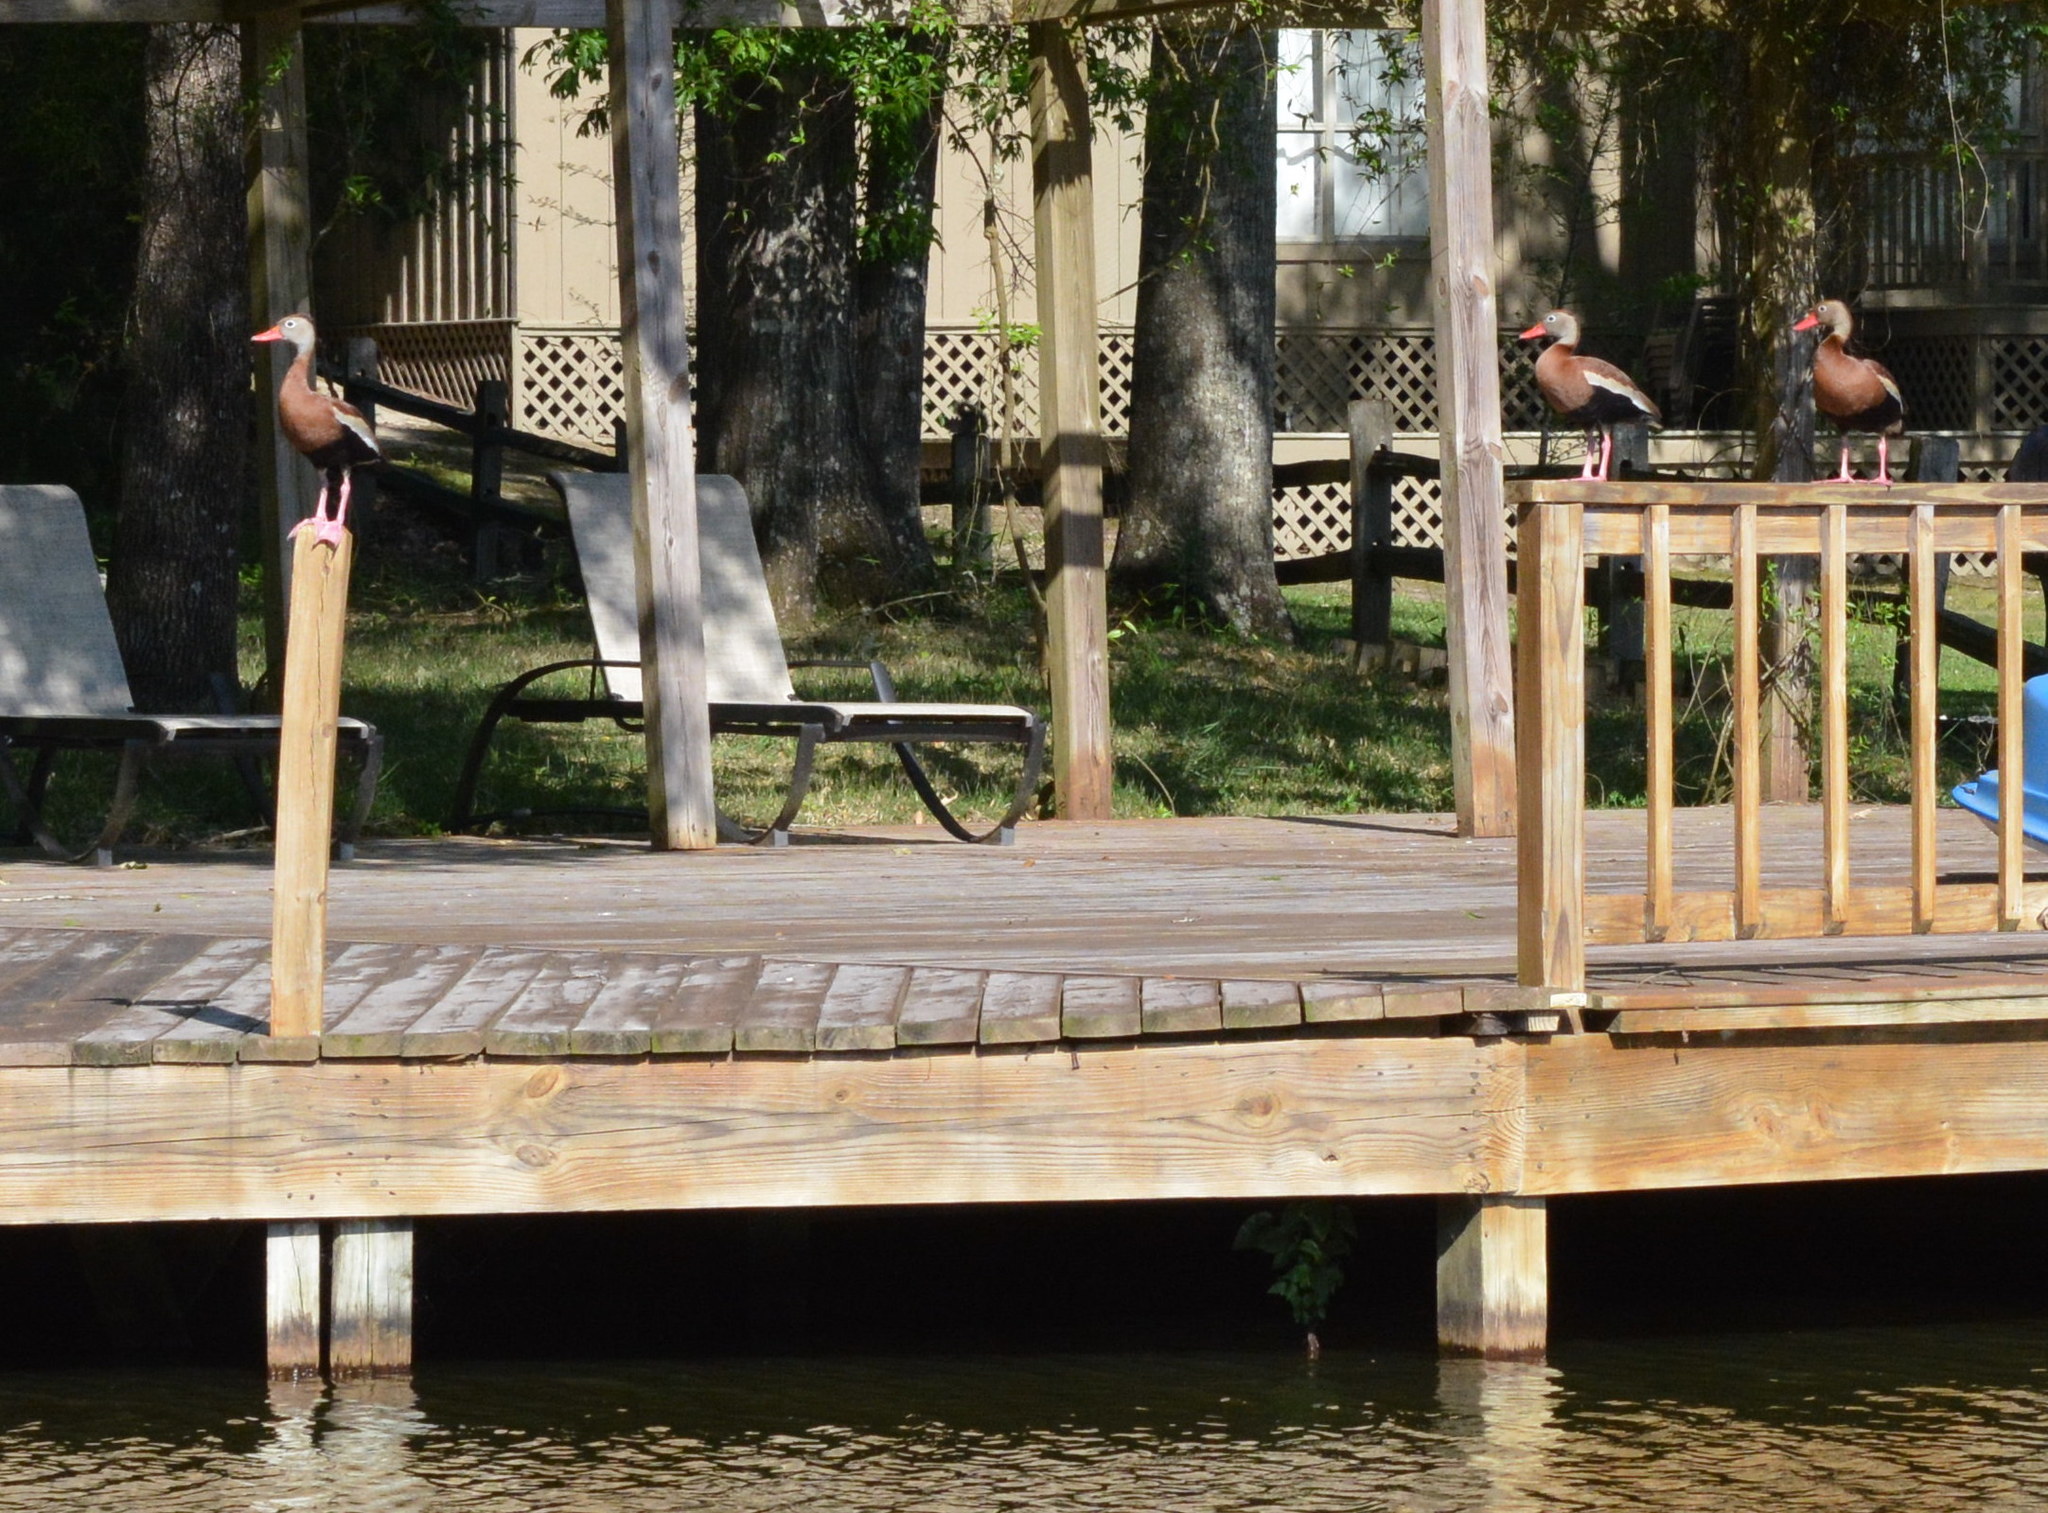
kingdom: Animalia
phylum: Chordata
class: Aves
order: Anseriformes
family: Anatidae
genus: Dendrocygna
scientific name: Dendrocygna autumnalis
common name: Black-bellied whistling duck
